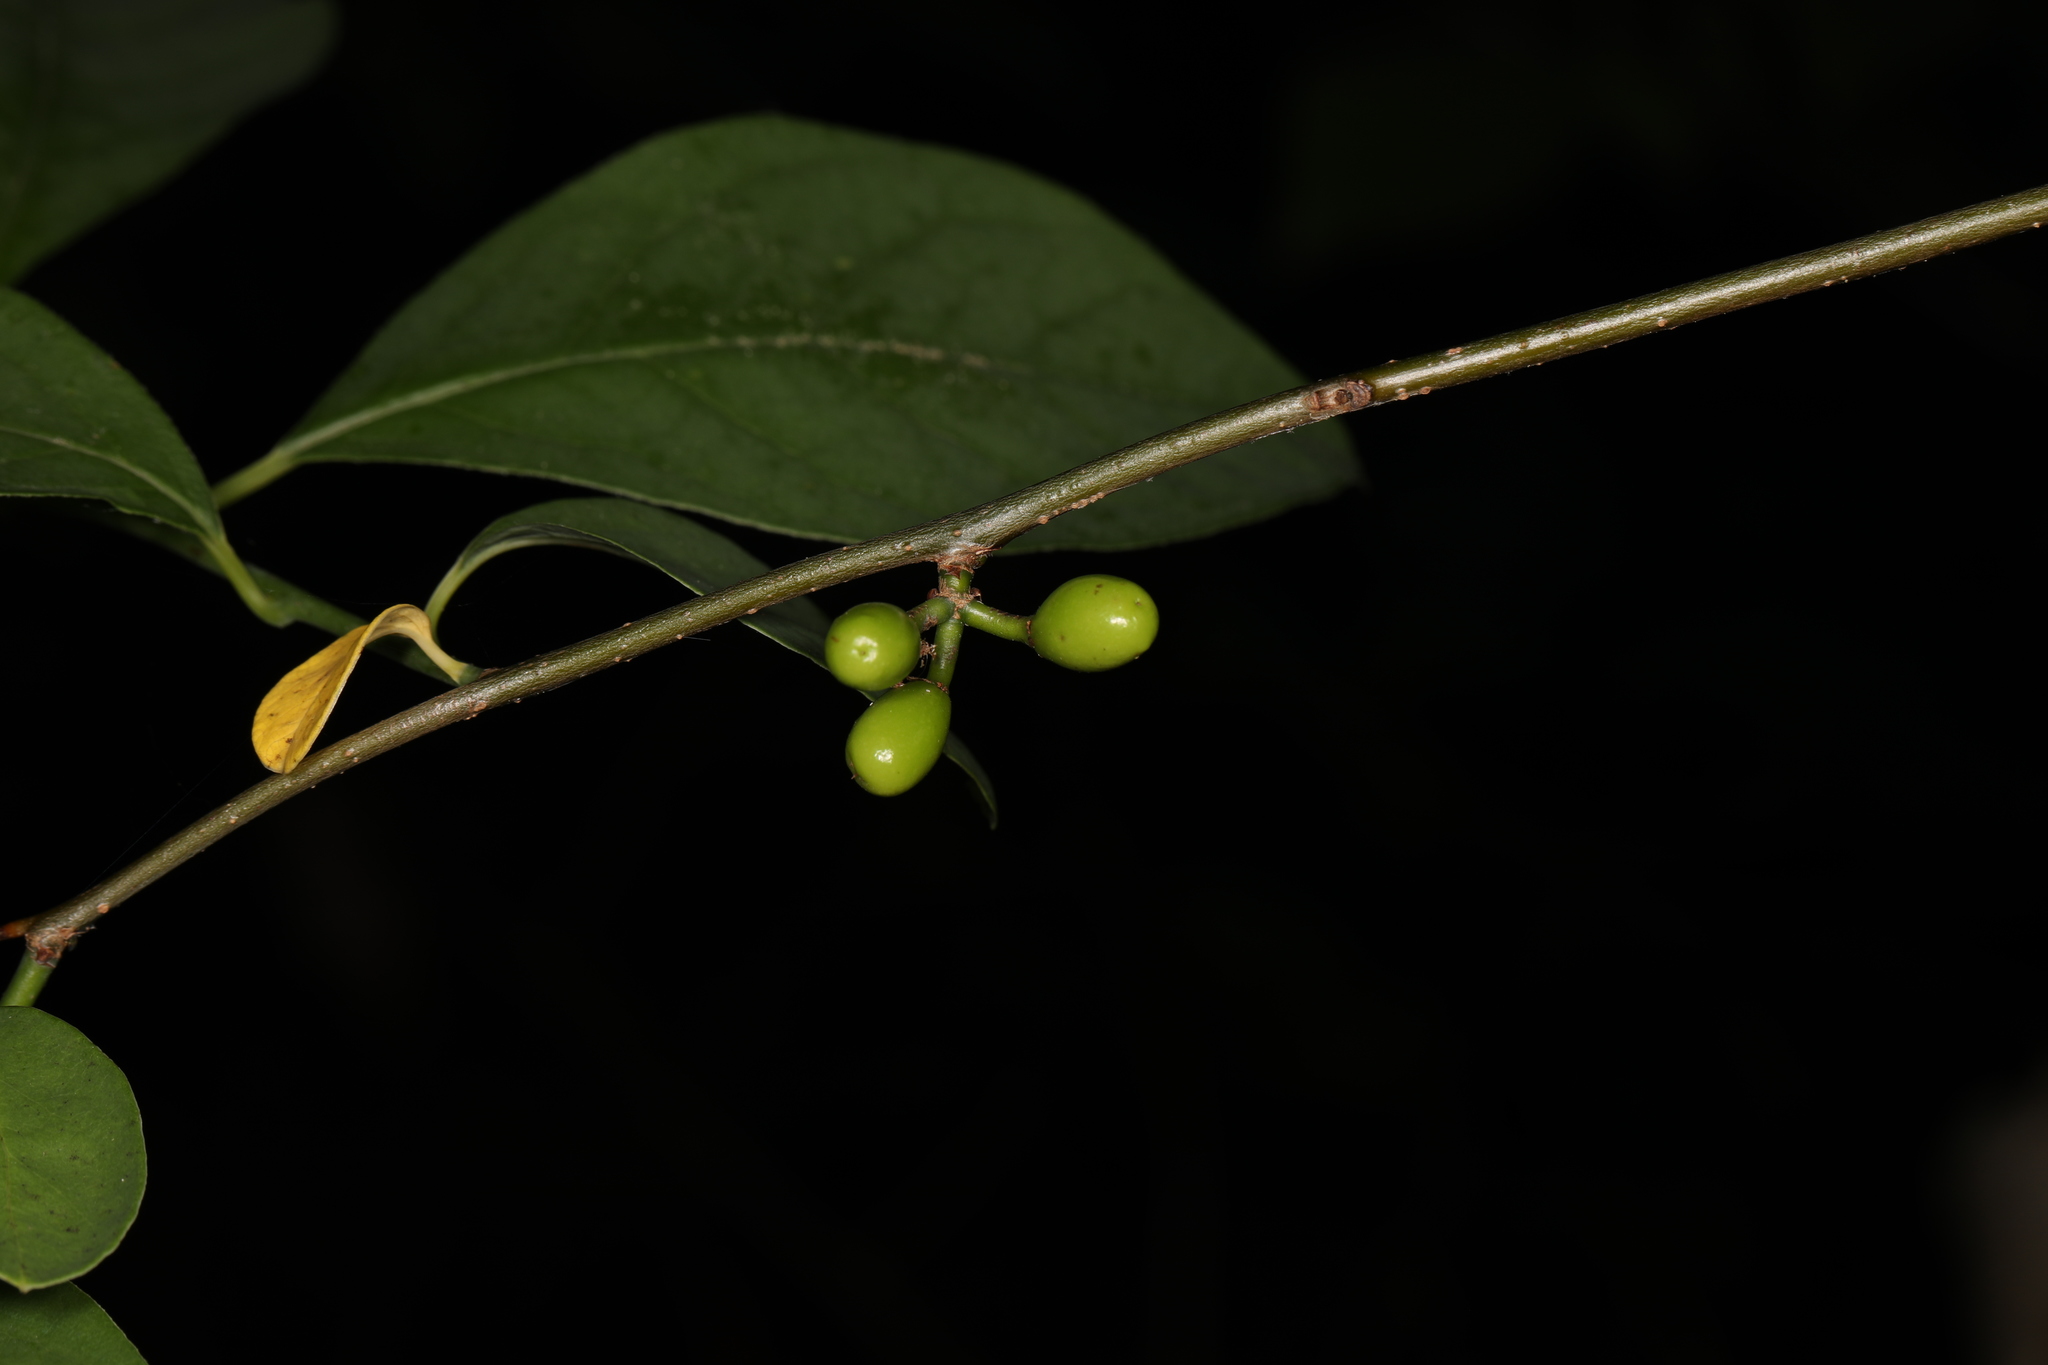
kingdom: Plantae
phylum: Tracheophyta
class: Magnoliopsida
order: Laurales
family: Lauraceae
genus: Lindera
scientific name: Lindera benzoin
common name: Spicebush
